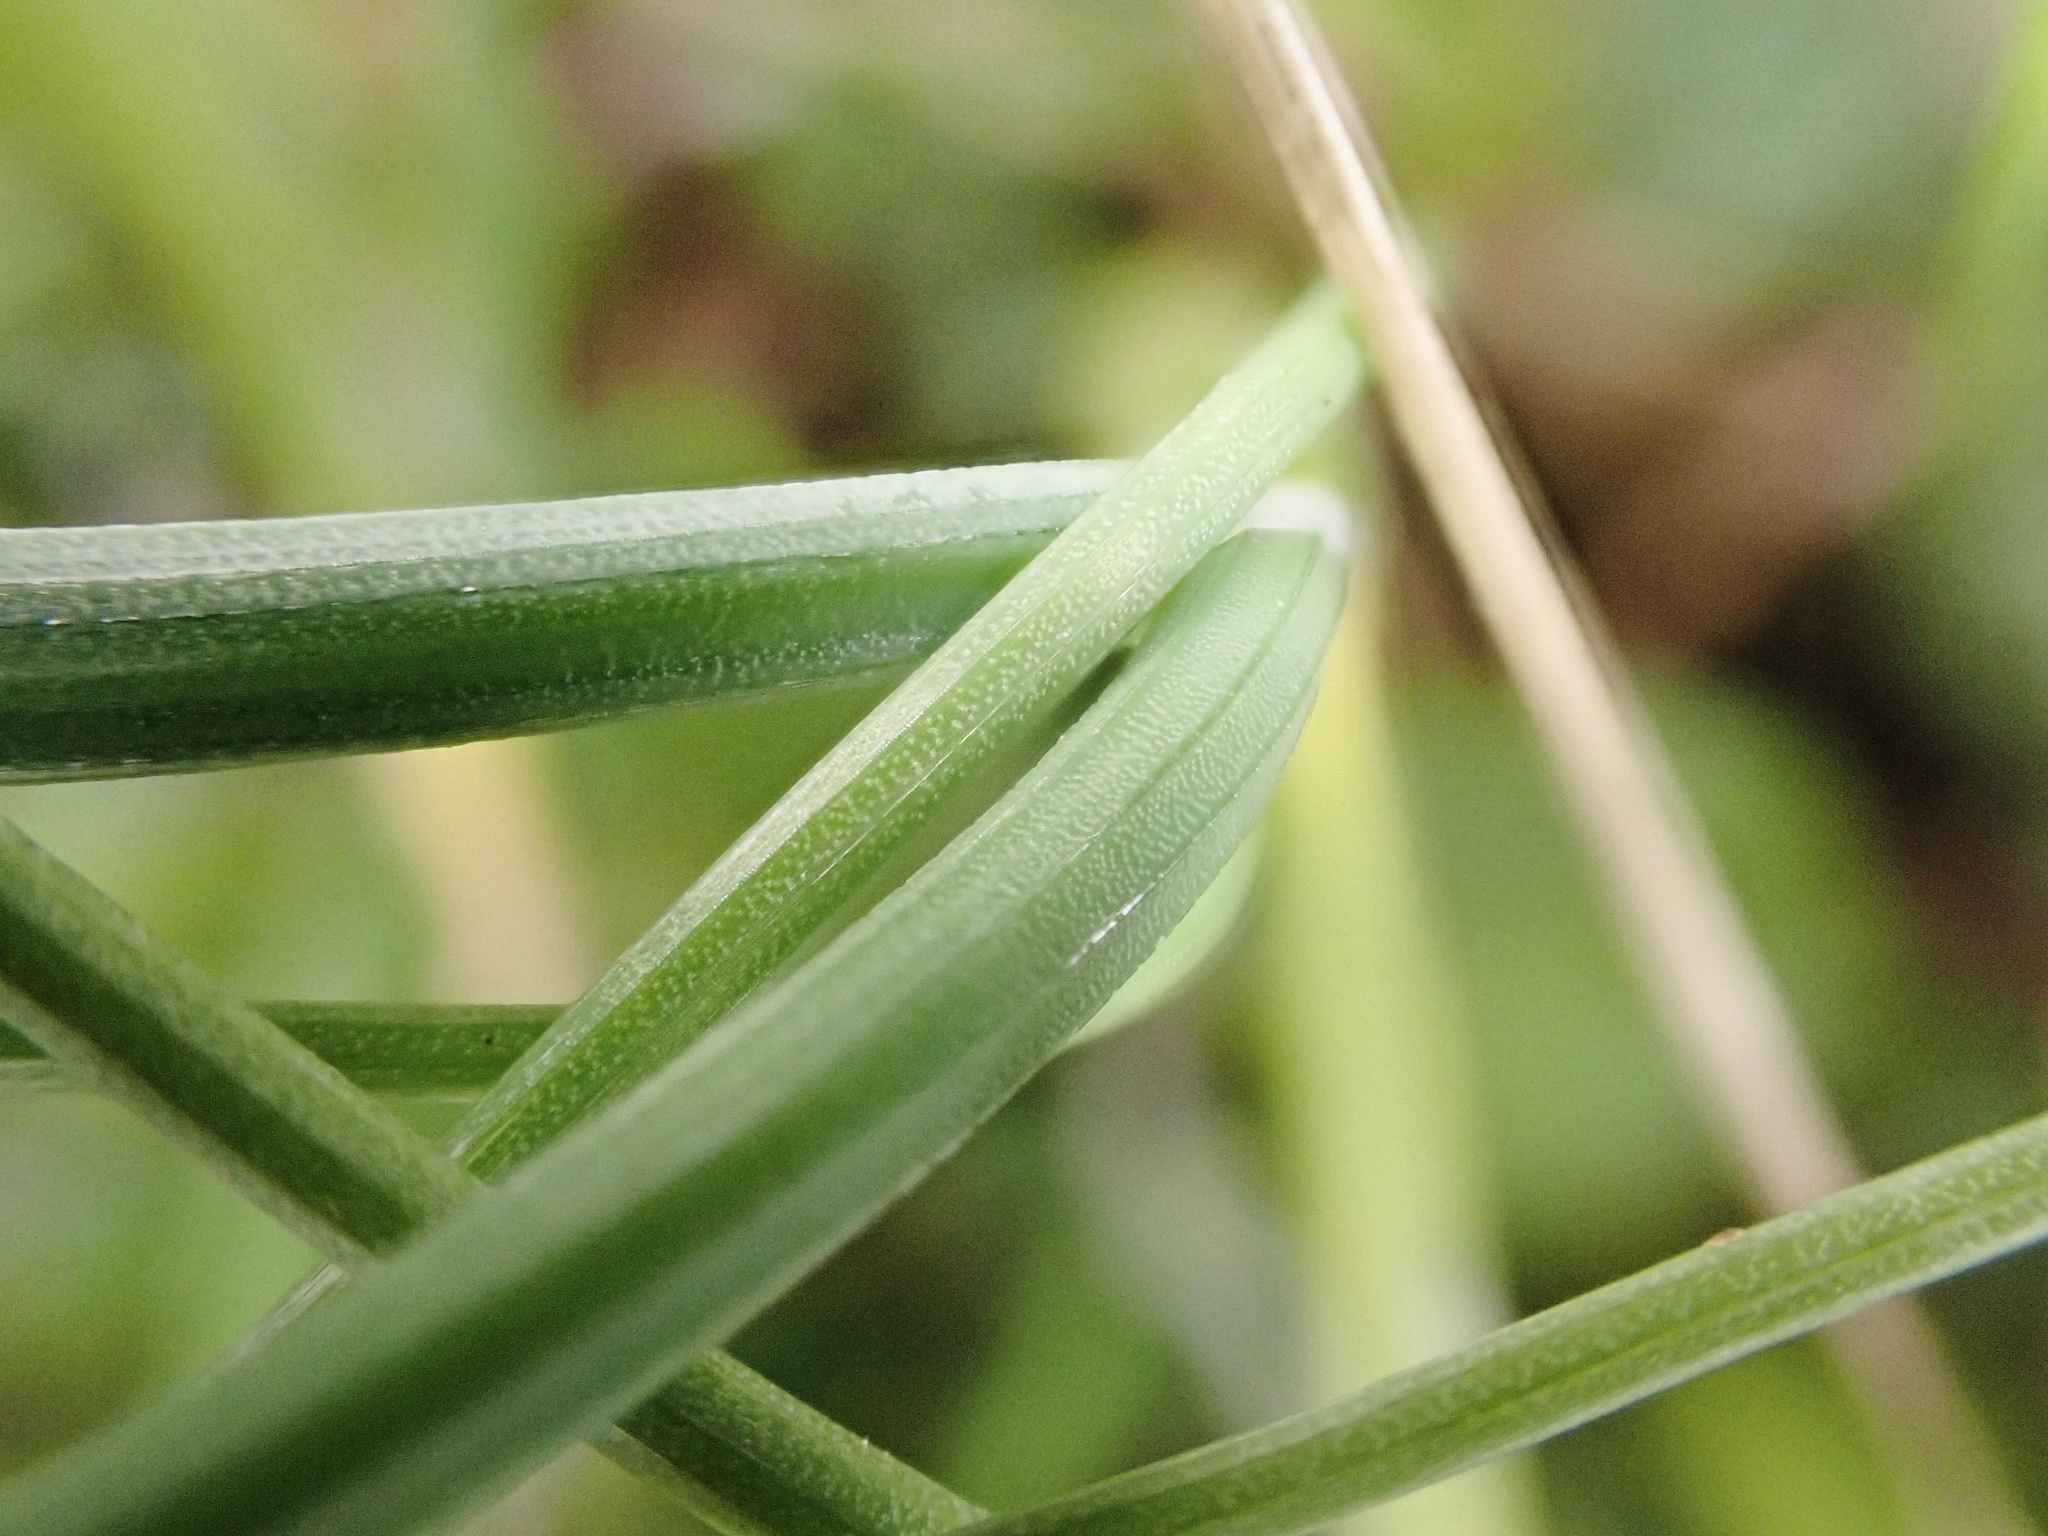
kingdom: Plantae
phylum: Tracheophyta
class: Liliopsida
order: Asparagales
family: Amaryllidaceae
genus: Allium
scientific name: Allium vineale
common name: Crow garlic
